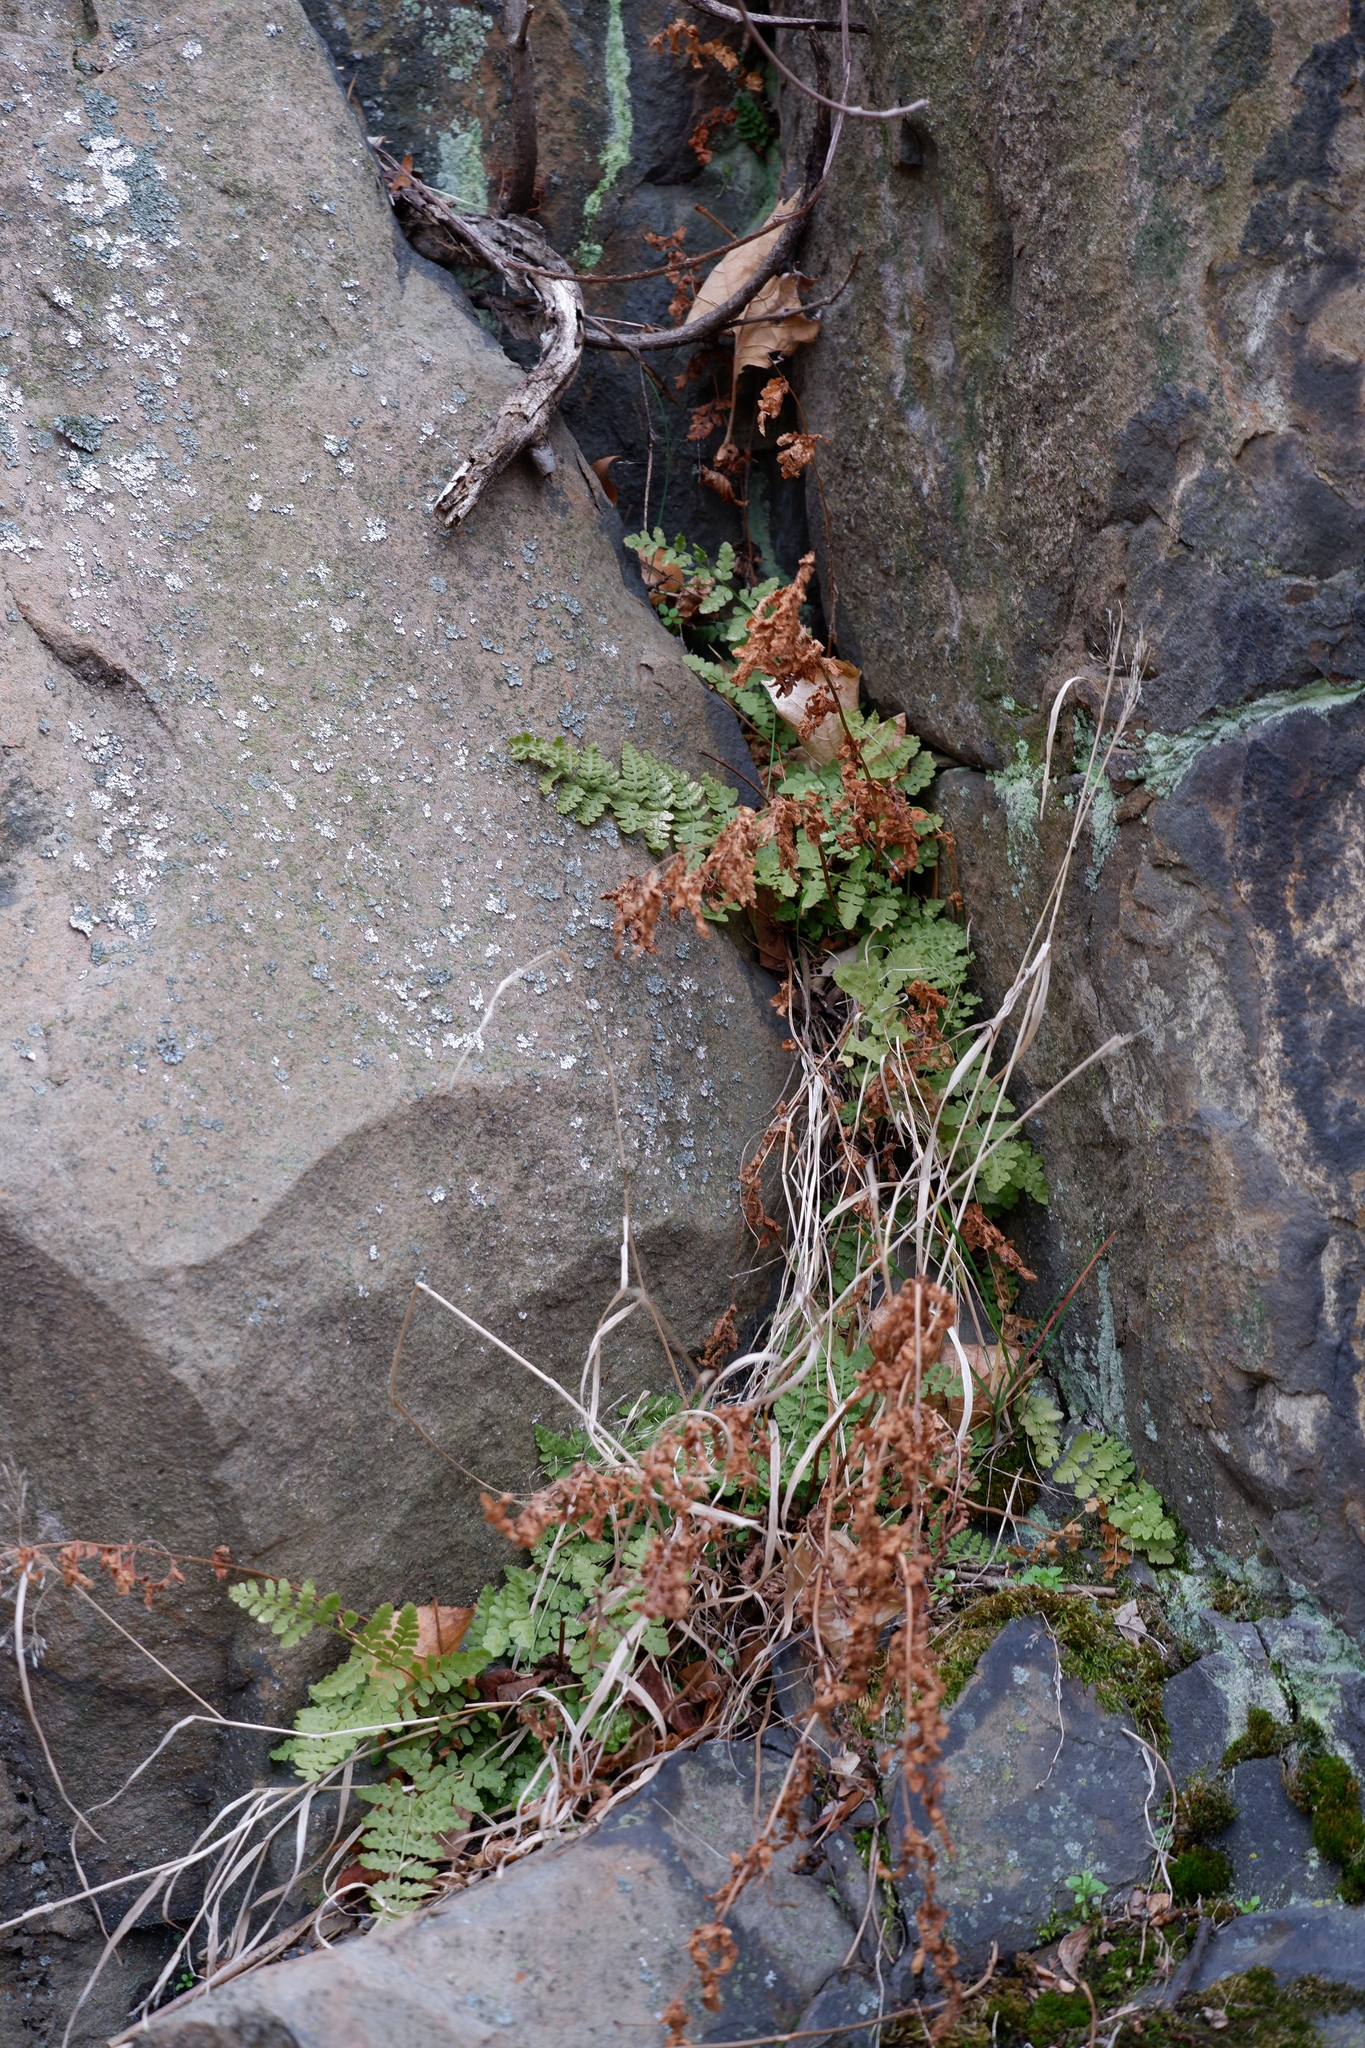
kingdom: Plantae
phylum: Tracheophyta
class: Polypodiopsida
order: Polypodiales
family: Woodsiaceae
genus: Physematium
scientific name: Physematium obtusum
